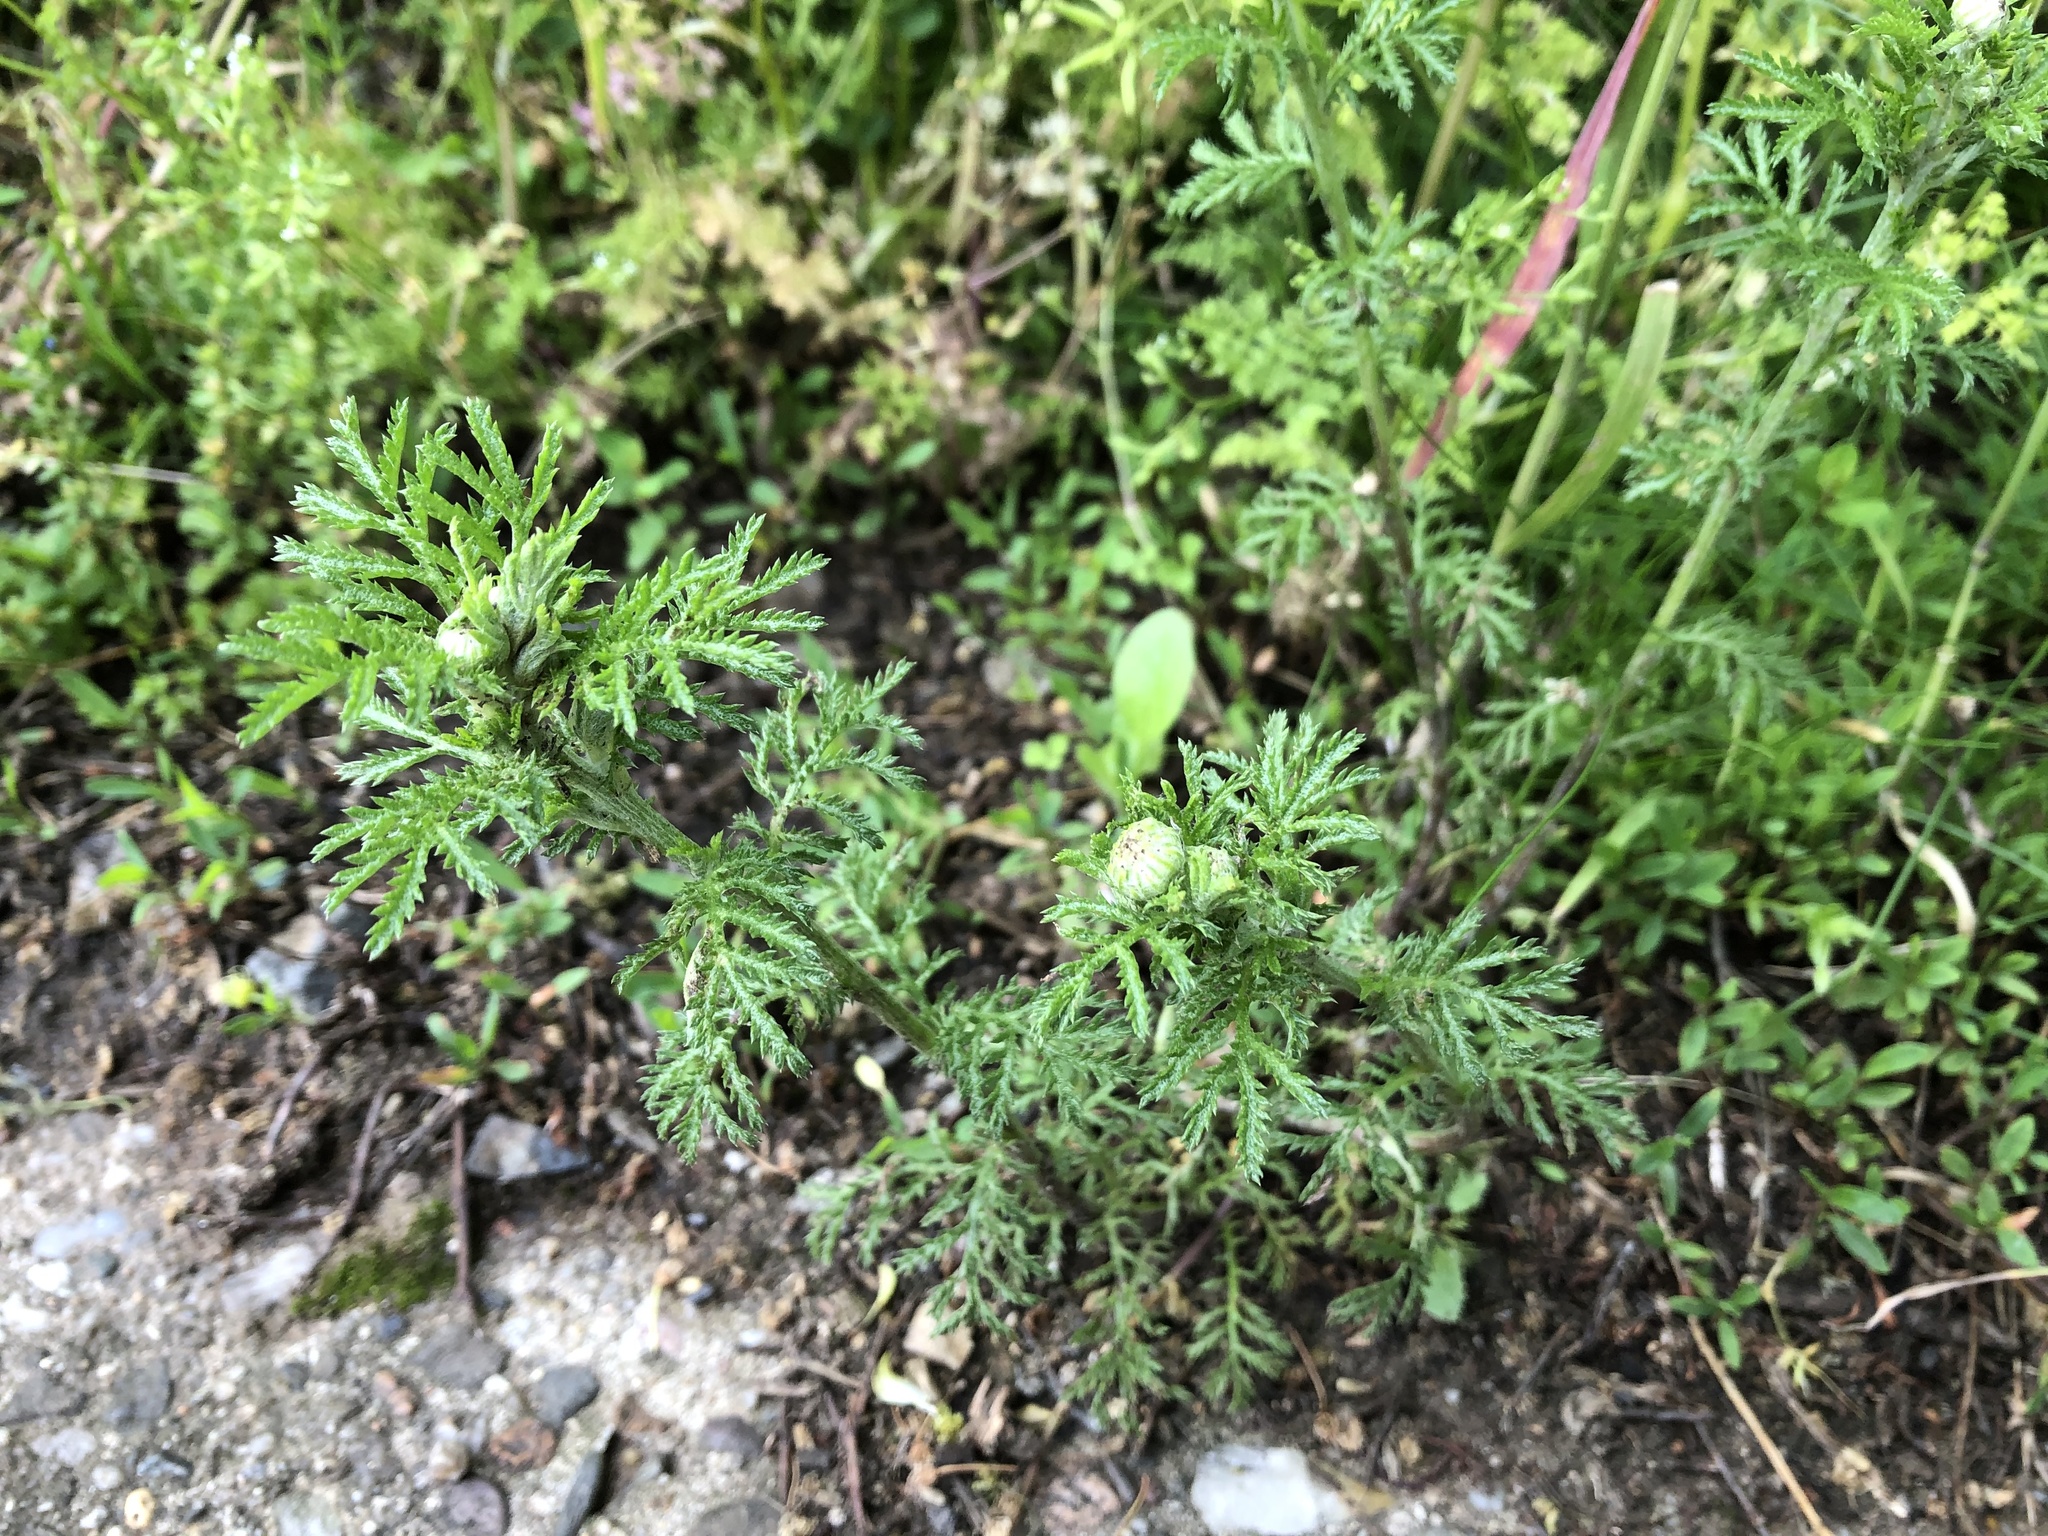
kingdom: Plantae
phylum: Tracheophyta
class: Magnoliopsida
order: Asterales
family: Asteraceae
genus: Cota
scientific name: Cota tinctoria
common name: Golden chamomile
